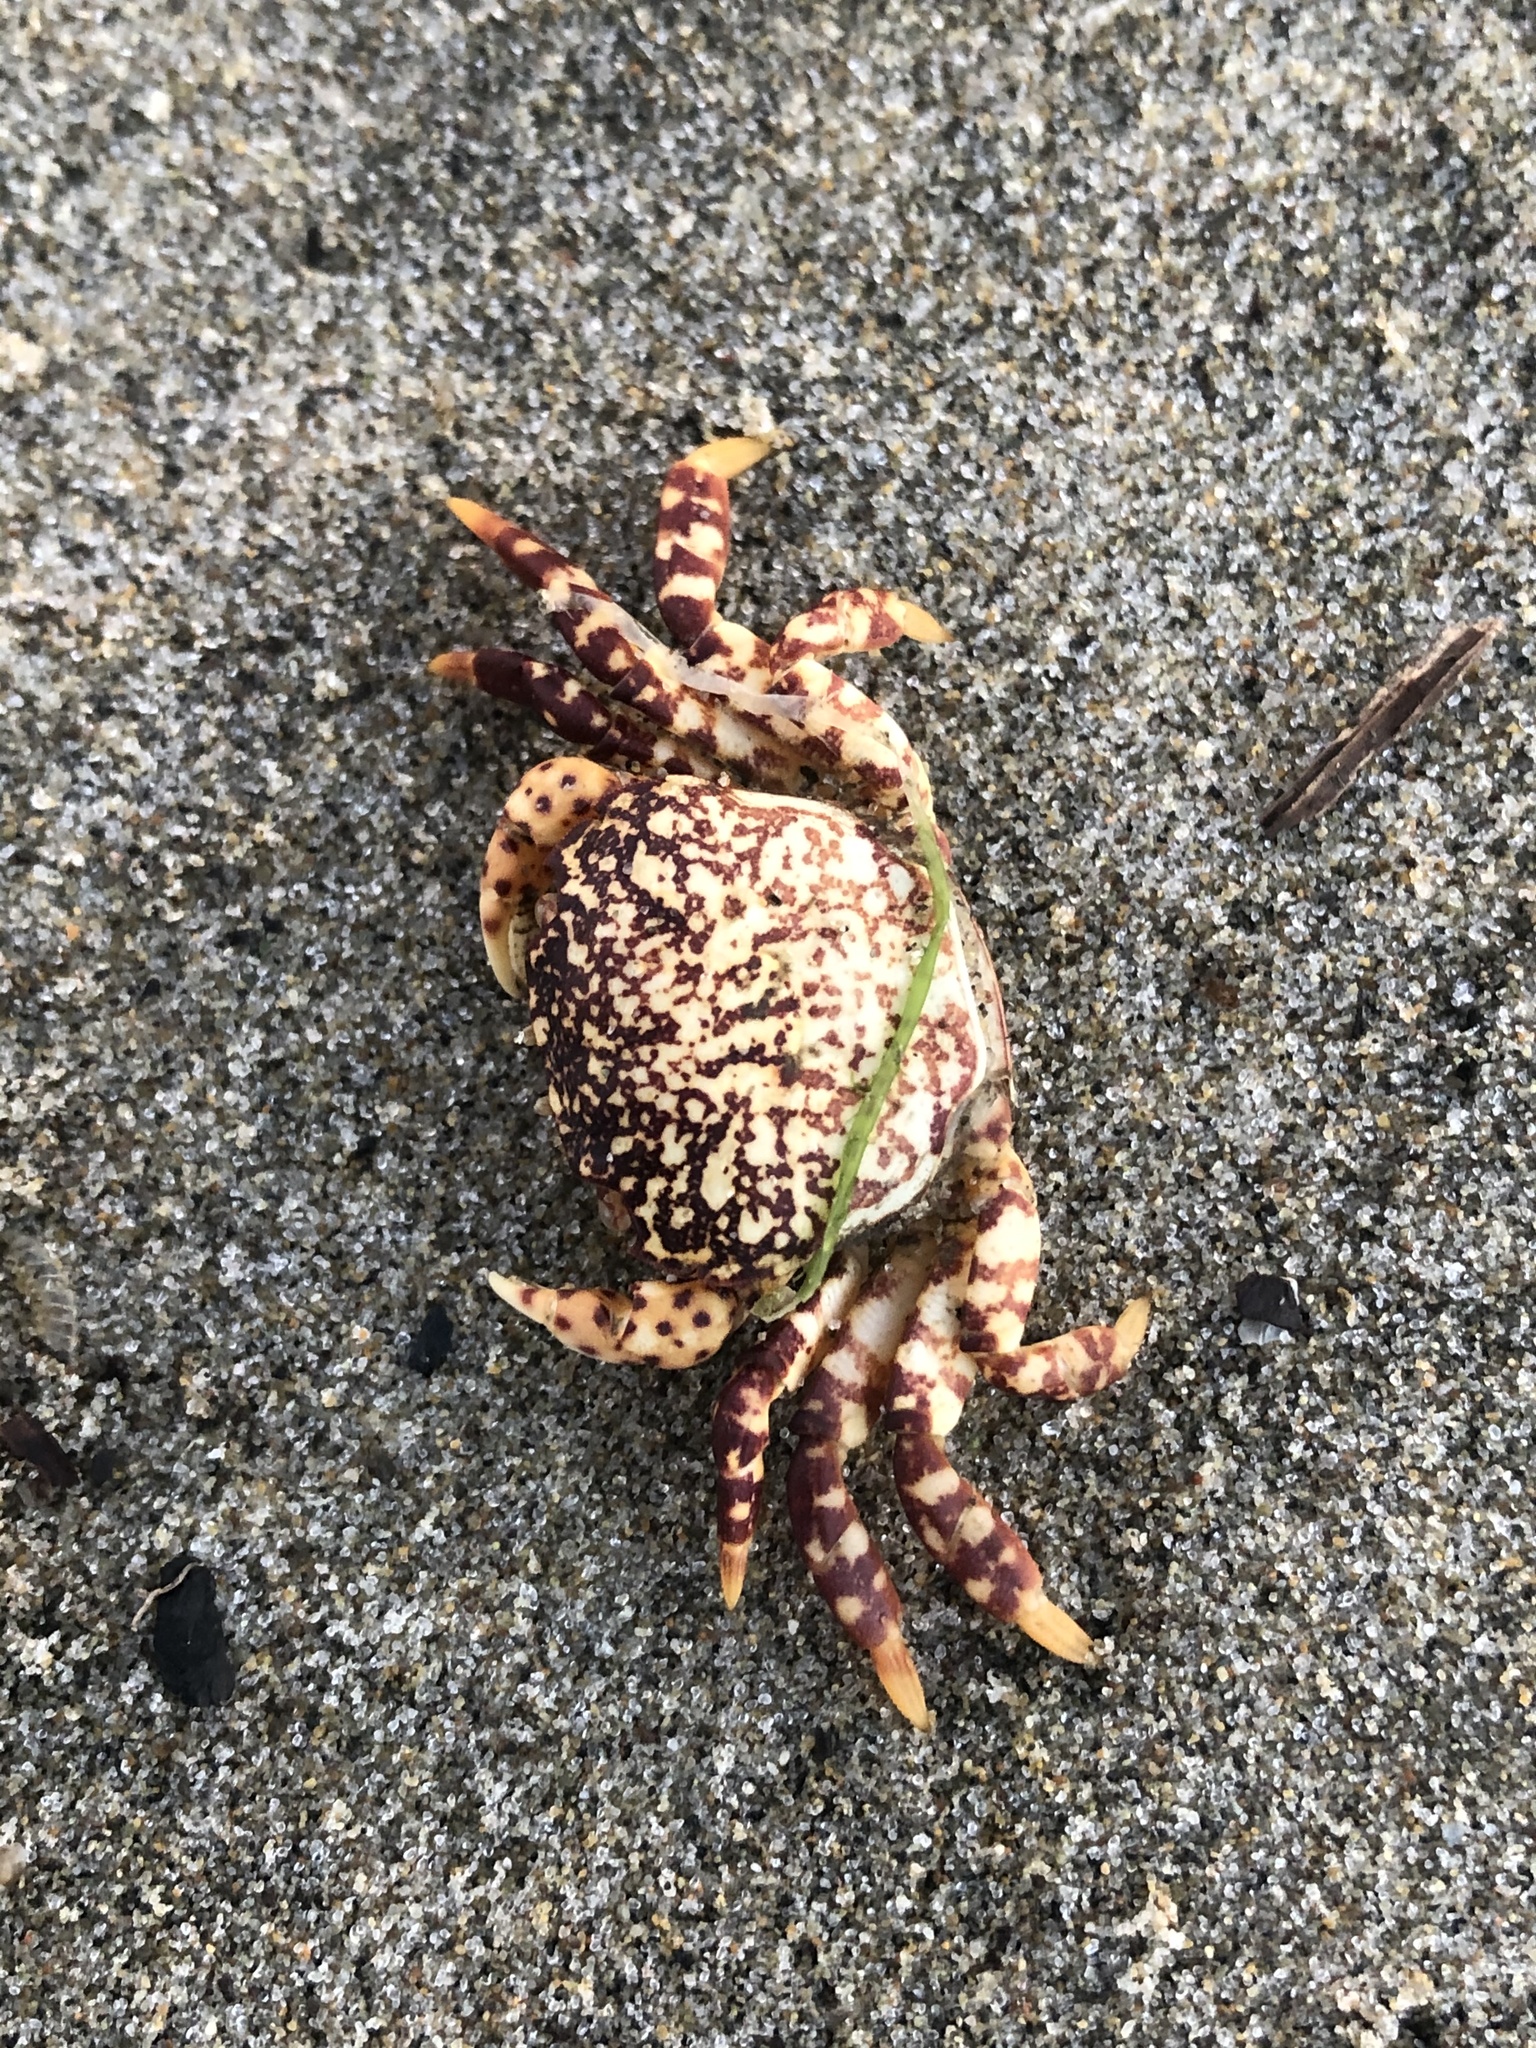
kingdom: Animalia
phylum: Arthropoda
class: Malacostraca
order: Decapoda
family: Varunidae
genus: Hemigrapsus
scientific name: Hemigrapsus nudus
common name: Purple shore crab
